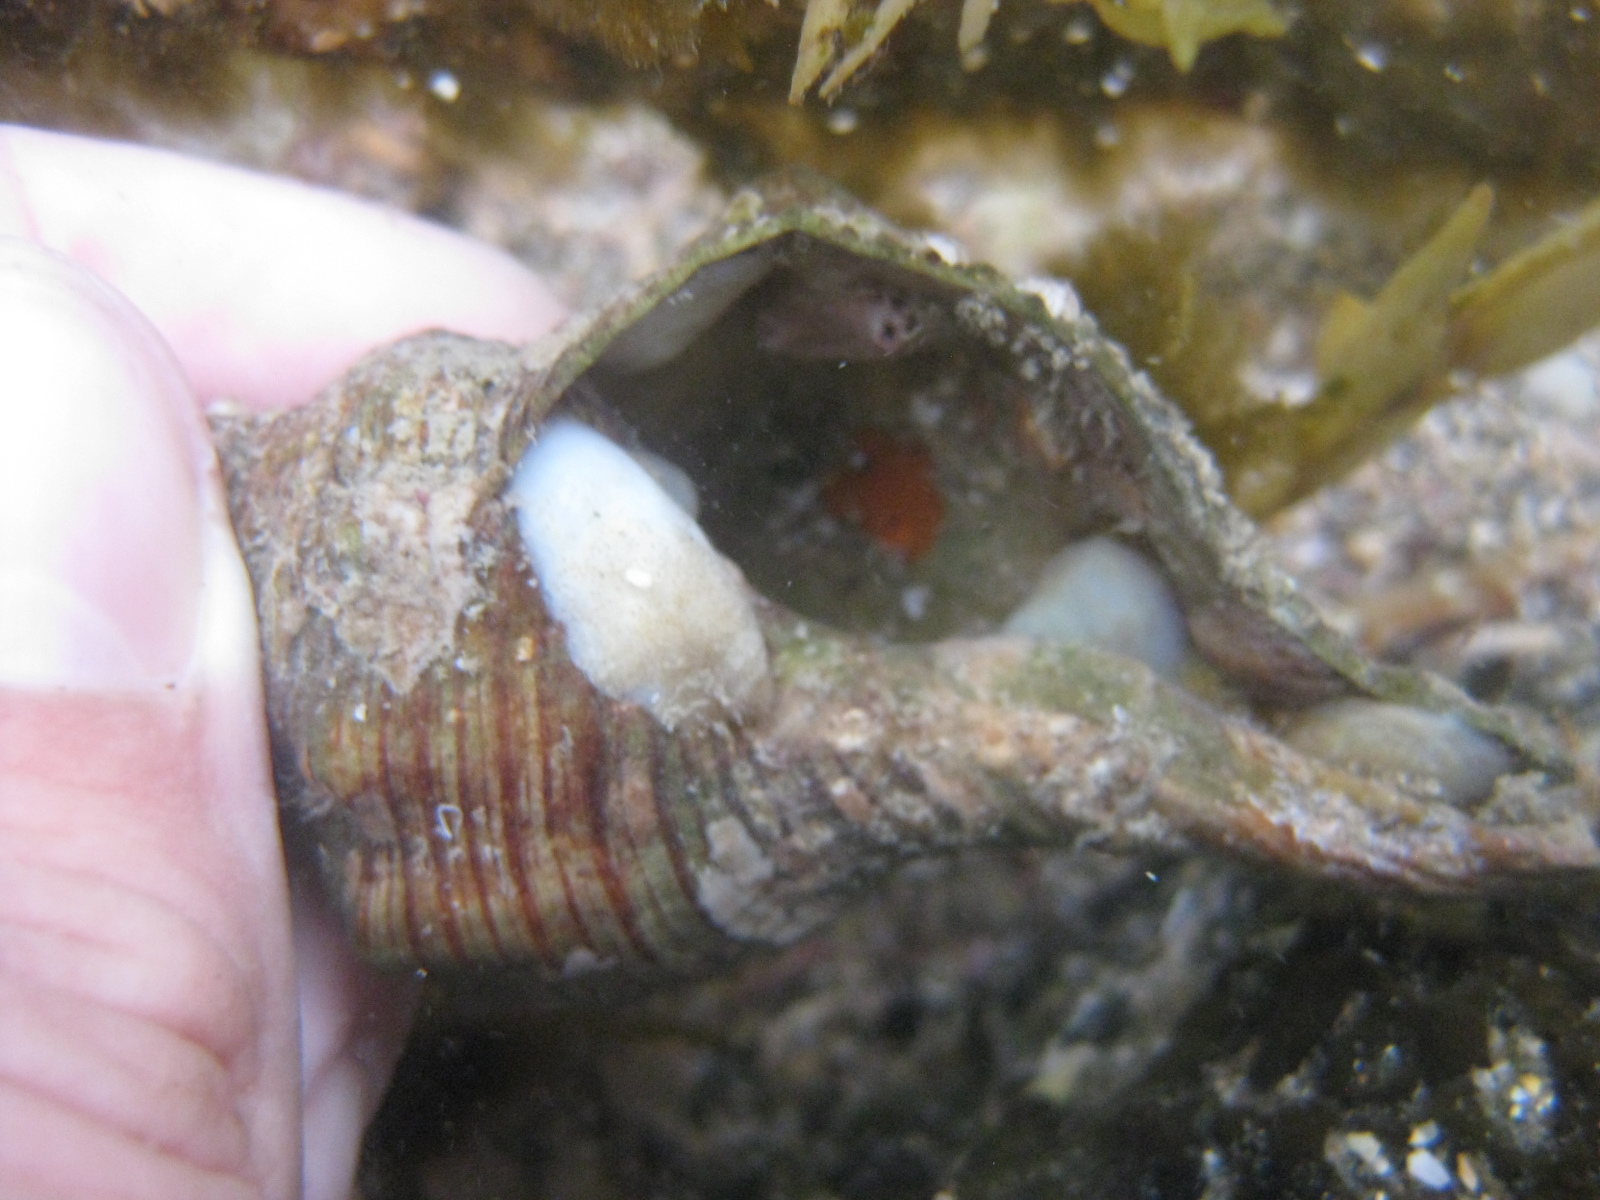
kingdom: Animalia
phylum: Mollusca
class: Gastropoda
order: Littorinimorpha
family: Calyptraeidae
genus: Maoricrypta
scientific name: Maoricrypta sodalis
